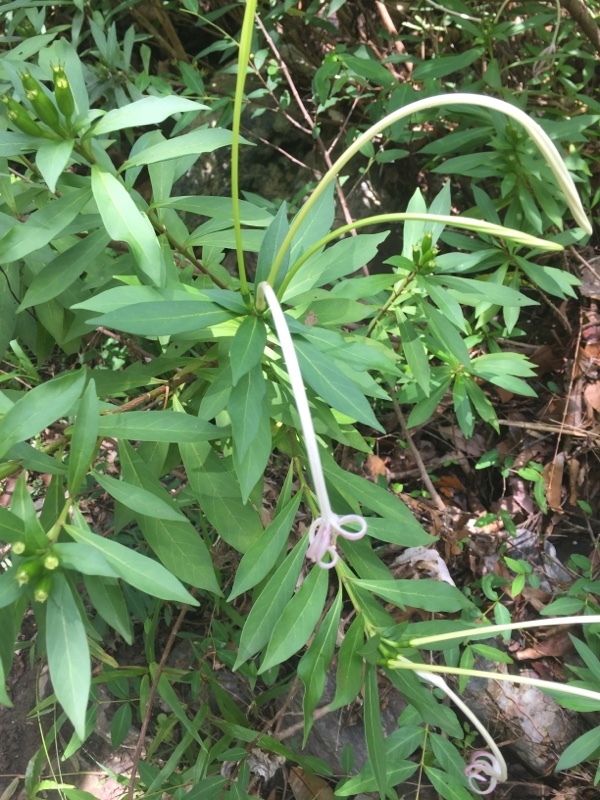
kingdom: Plantae
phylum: Tracheophyta
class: Magnoliopsida
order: Gentianales
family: Rubiaceae
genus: Solenandra
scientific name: Solenandra longiflora
